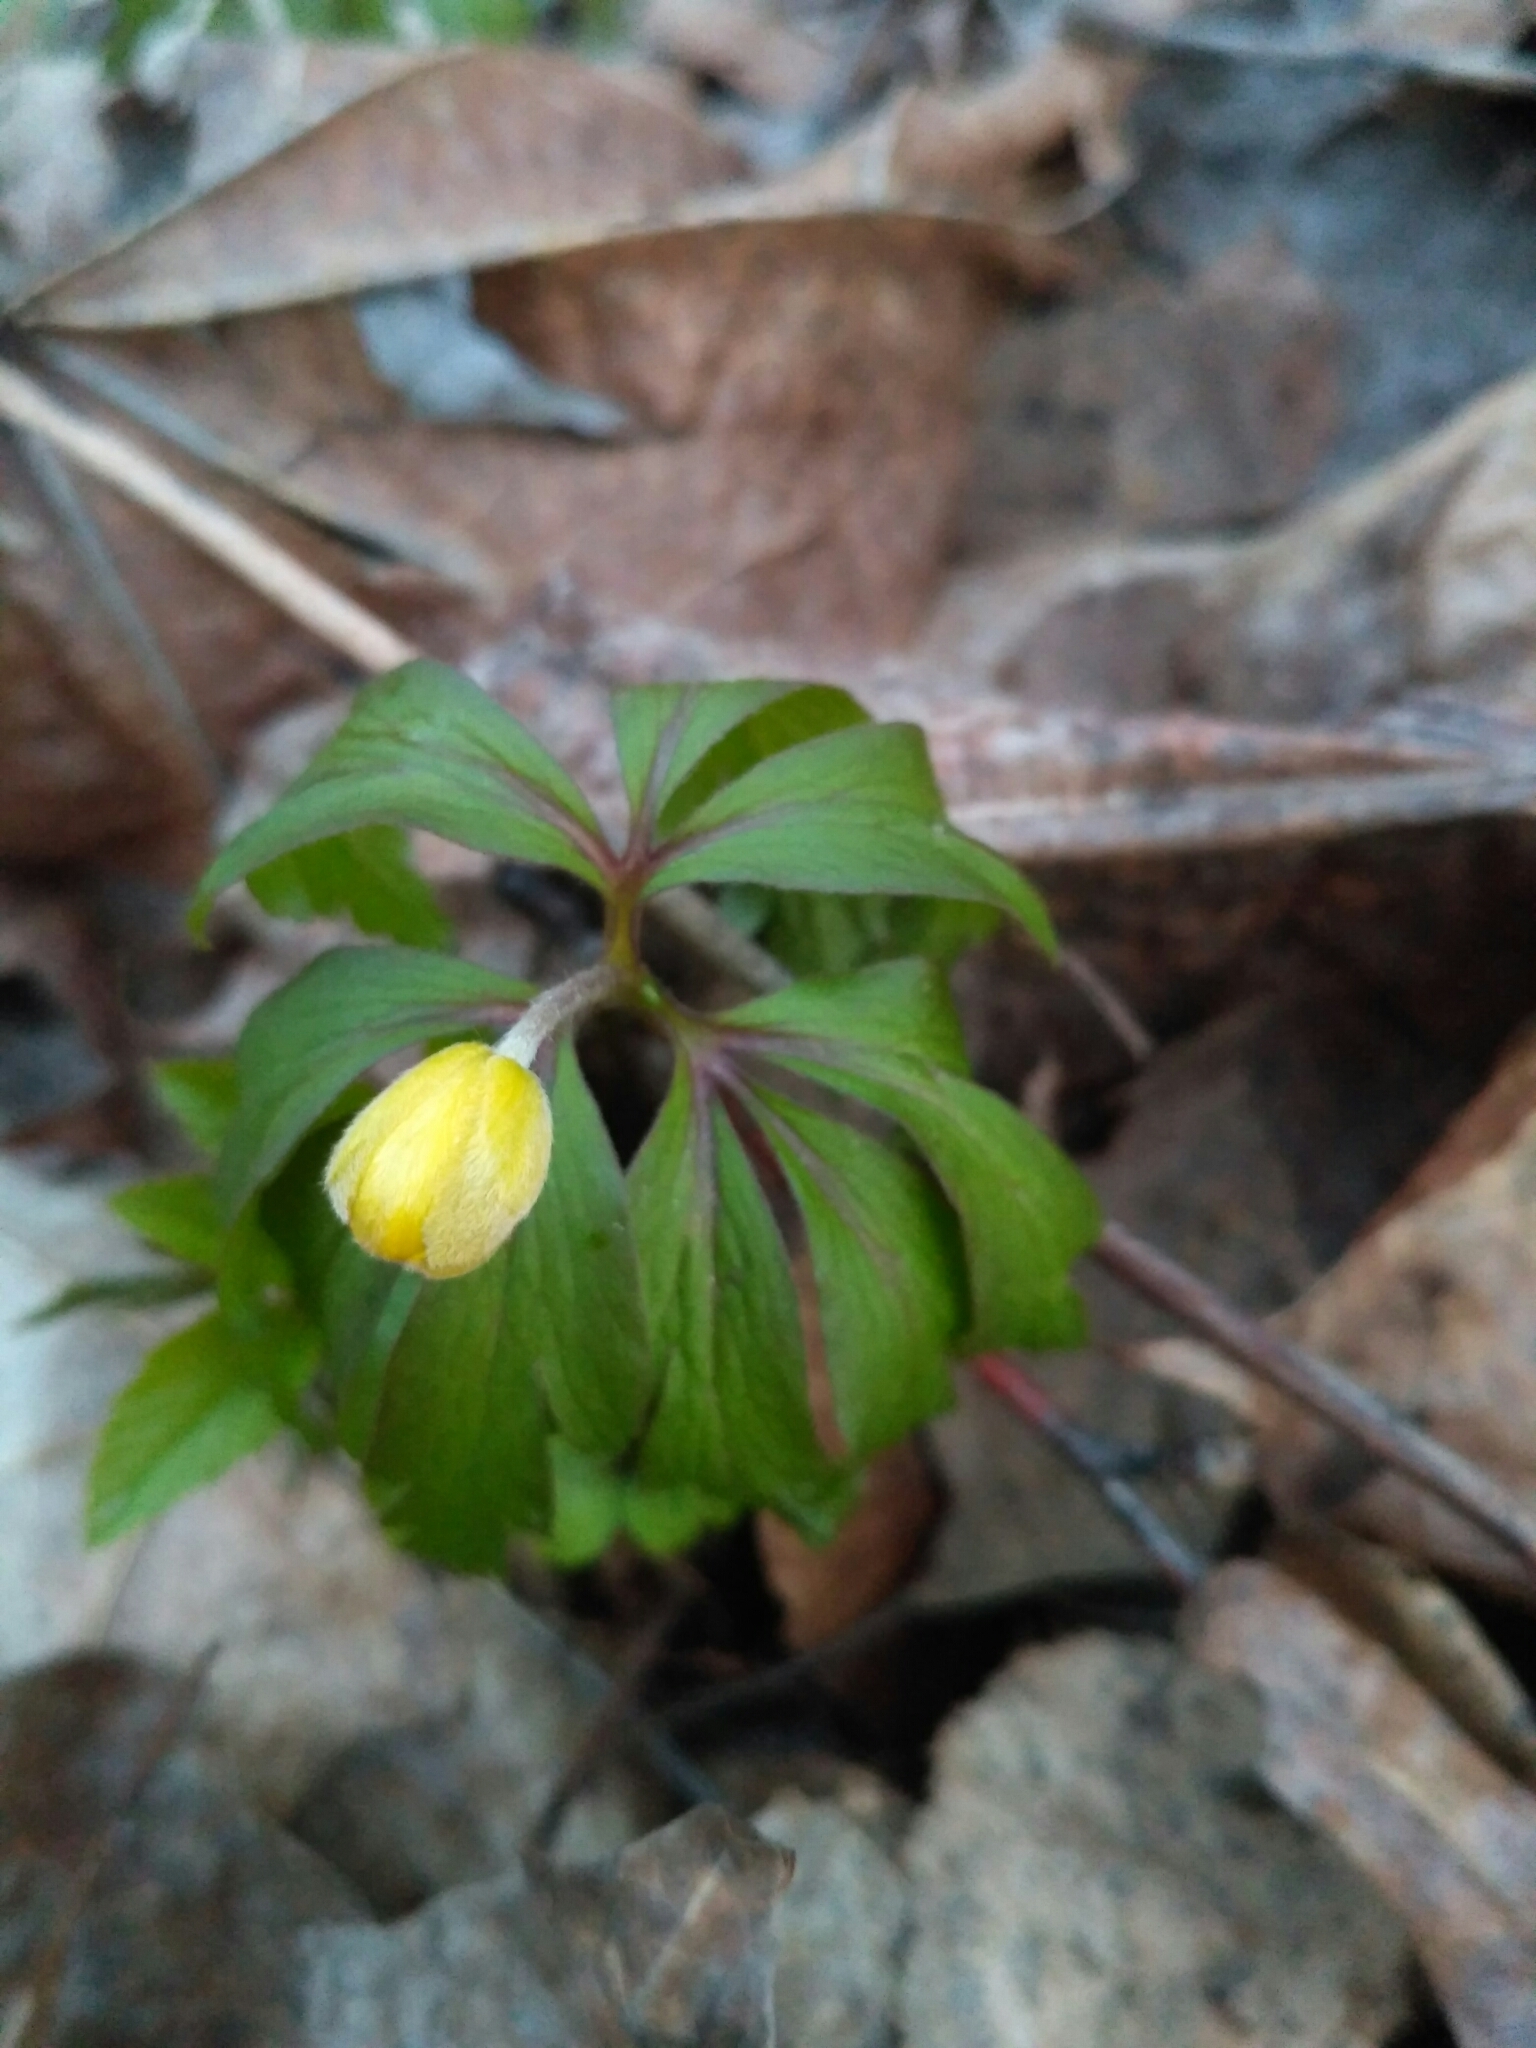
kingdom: Plantae
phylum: Tracheophyta
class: Magnoliopsida
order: Ranunculales
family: Ranunculaceae
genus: Anemone
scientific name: Anemone ranunculoides
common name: Yellow anemone
